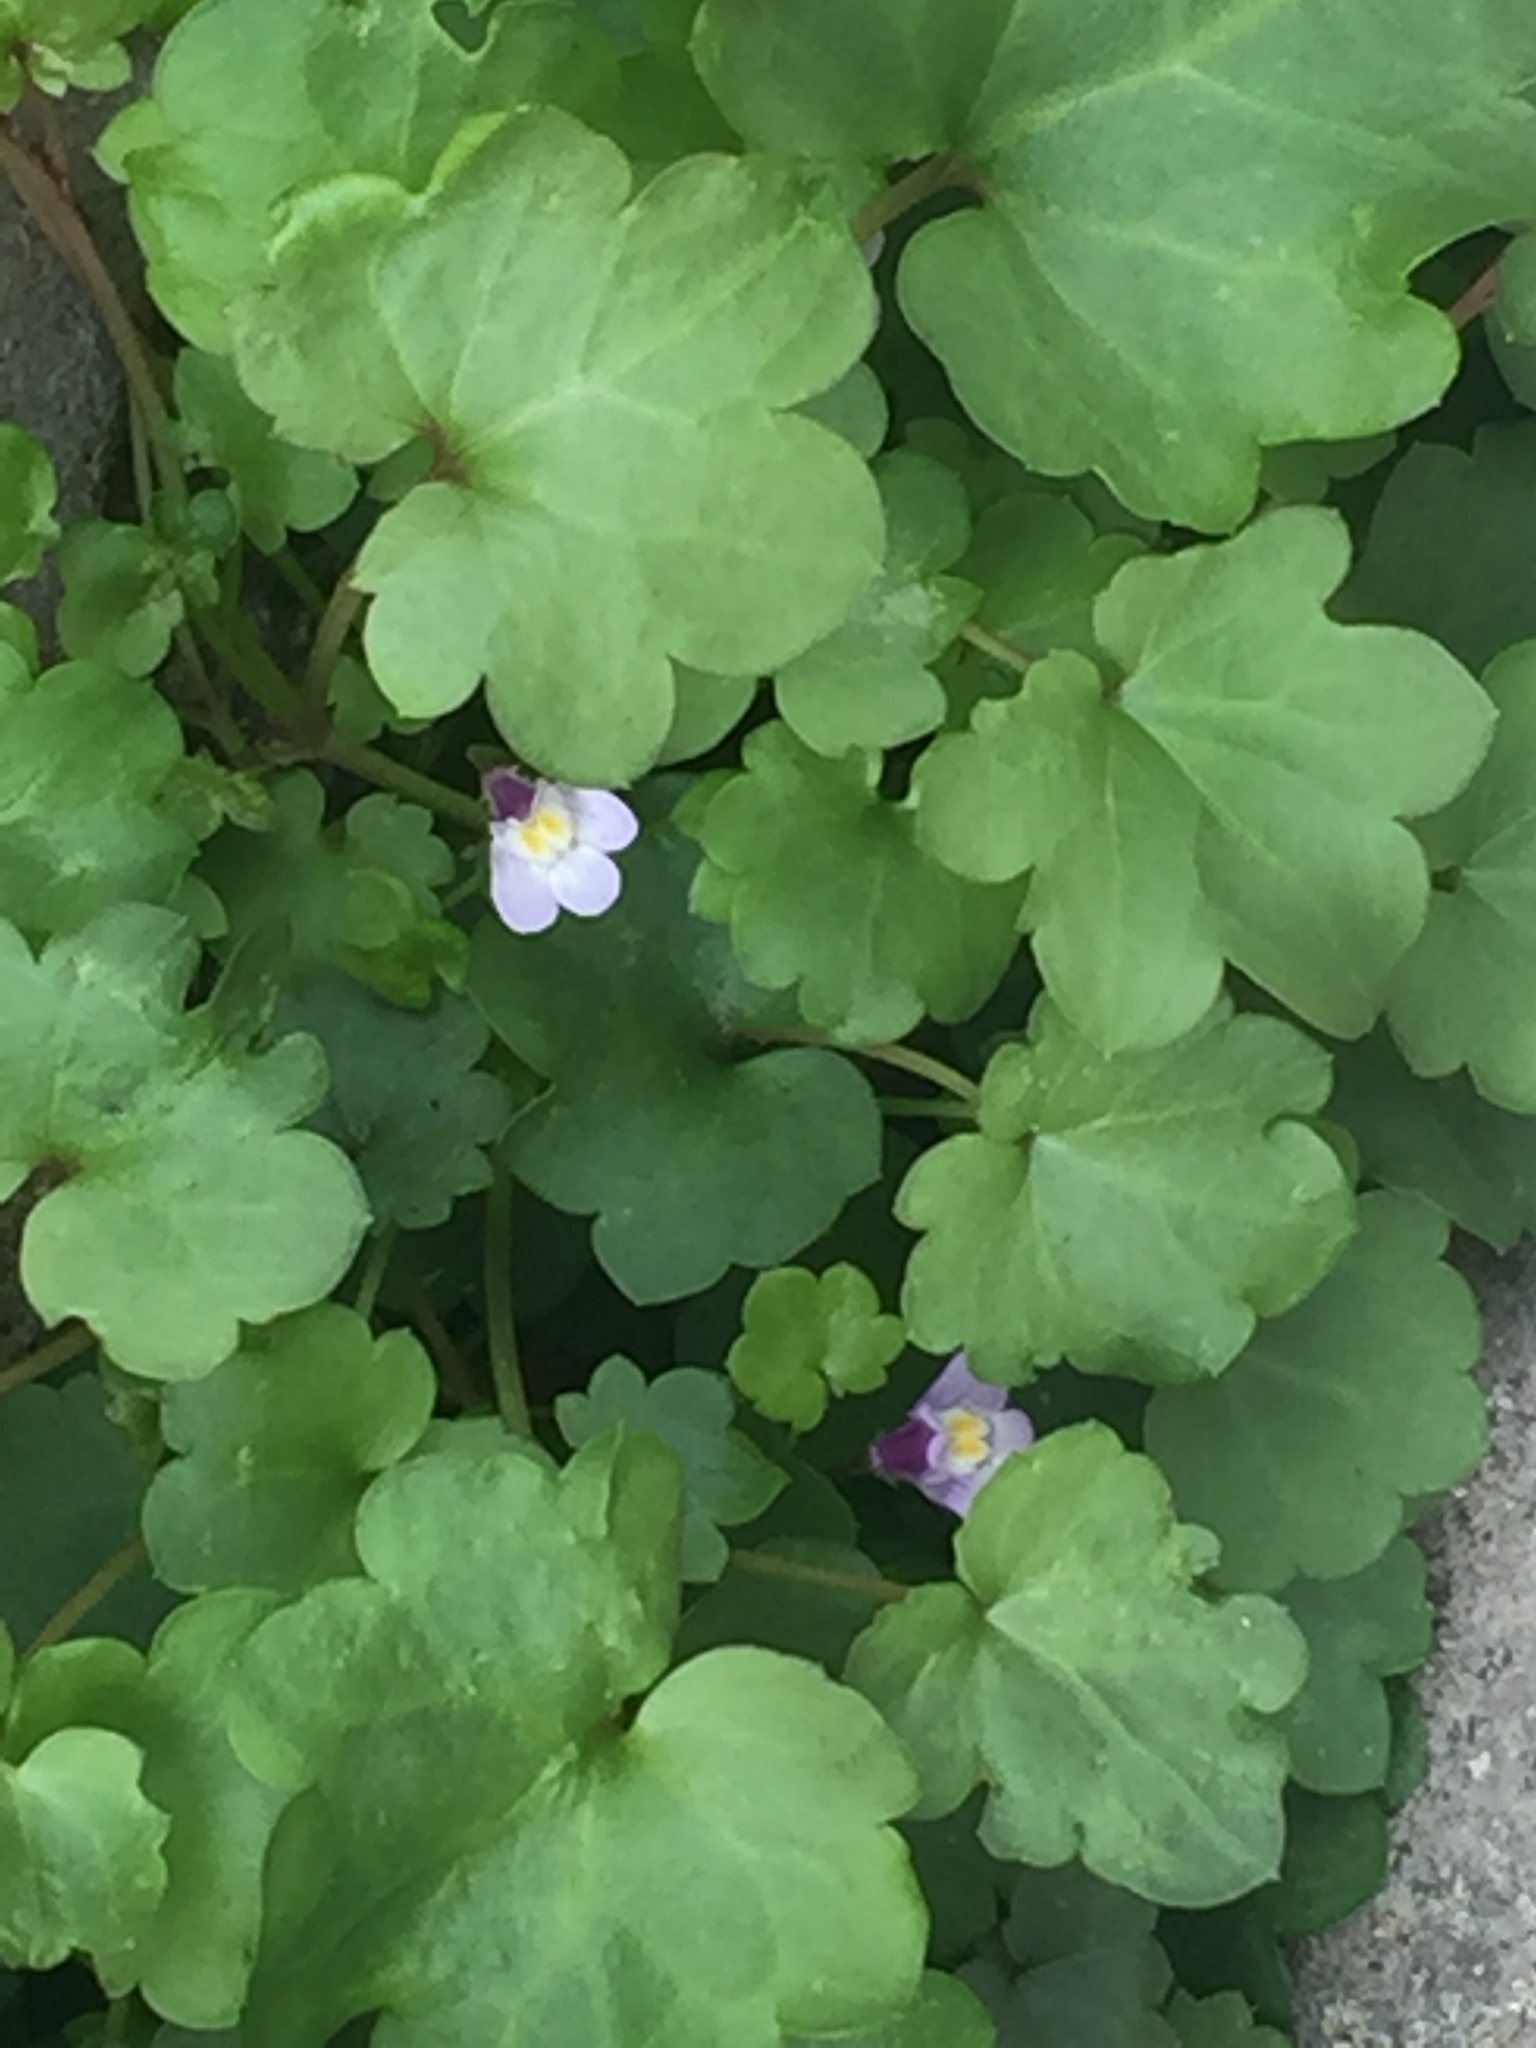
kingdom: Plantae
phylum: Tracheophyta
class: Magnoliopsida
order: Lamiales
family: Plantaginaceae
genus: Cymbalaria
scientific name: Cymbalaria muralis
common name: Ivy-leaved toadflax
